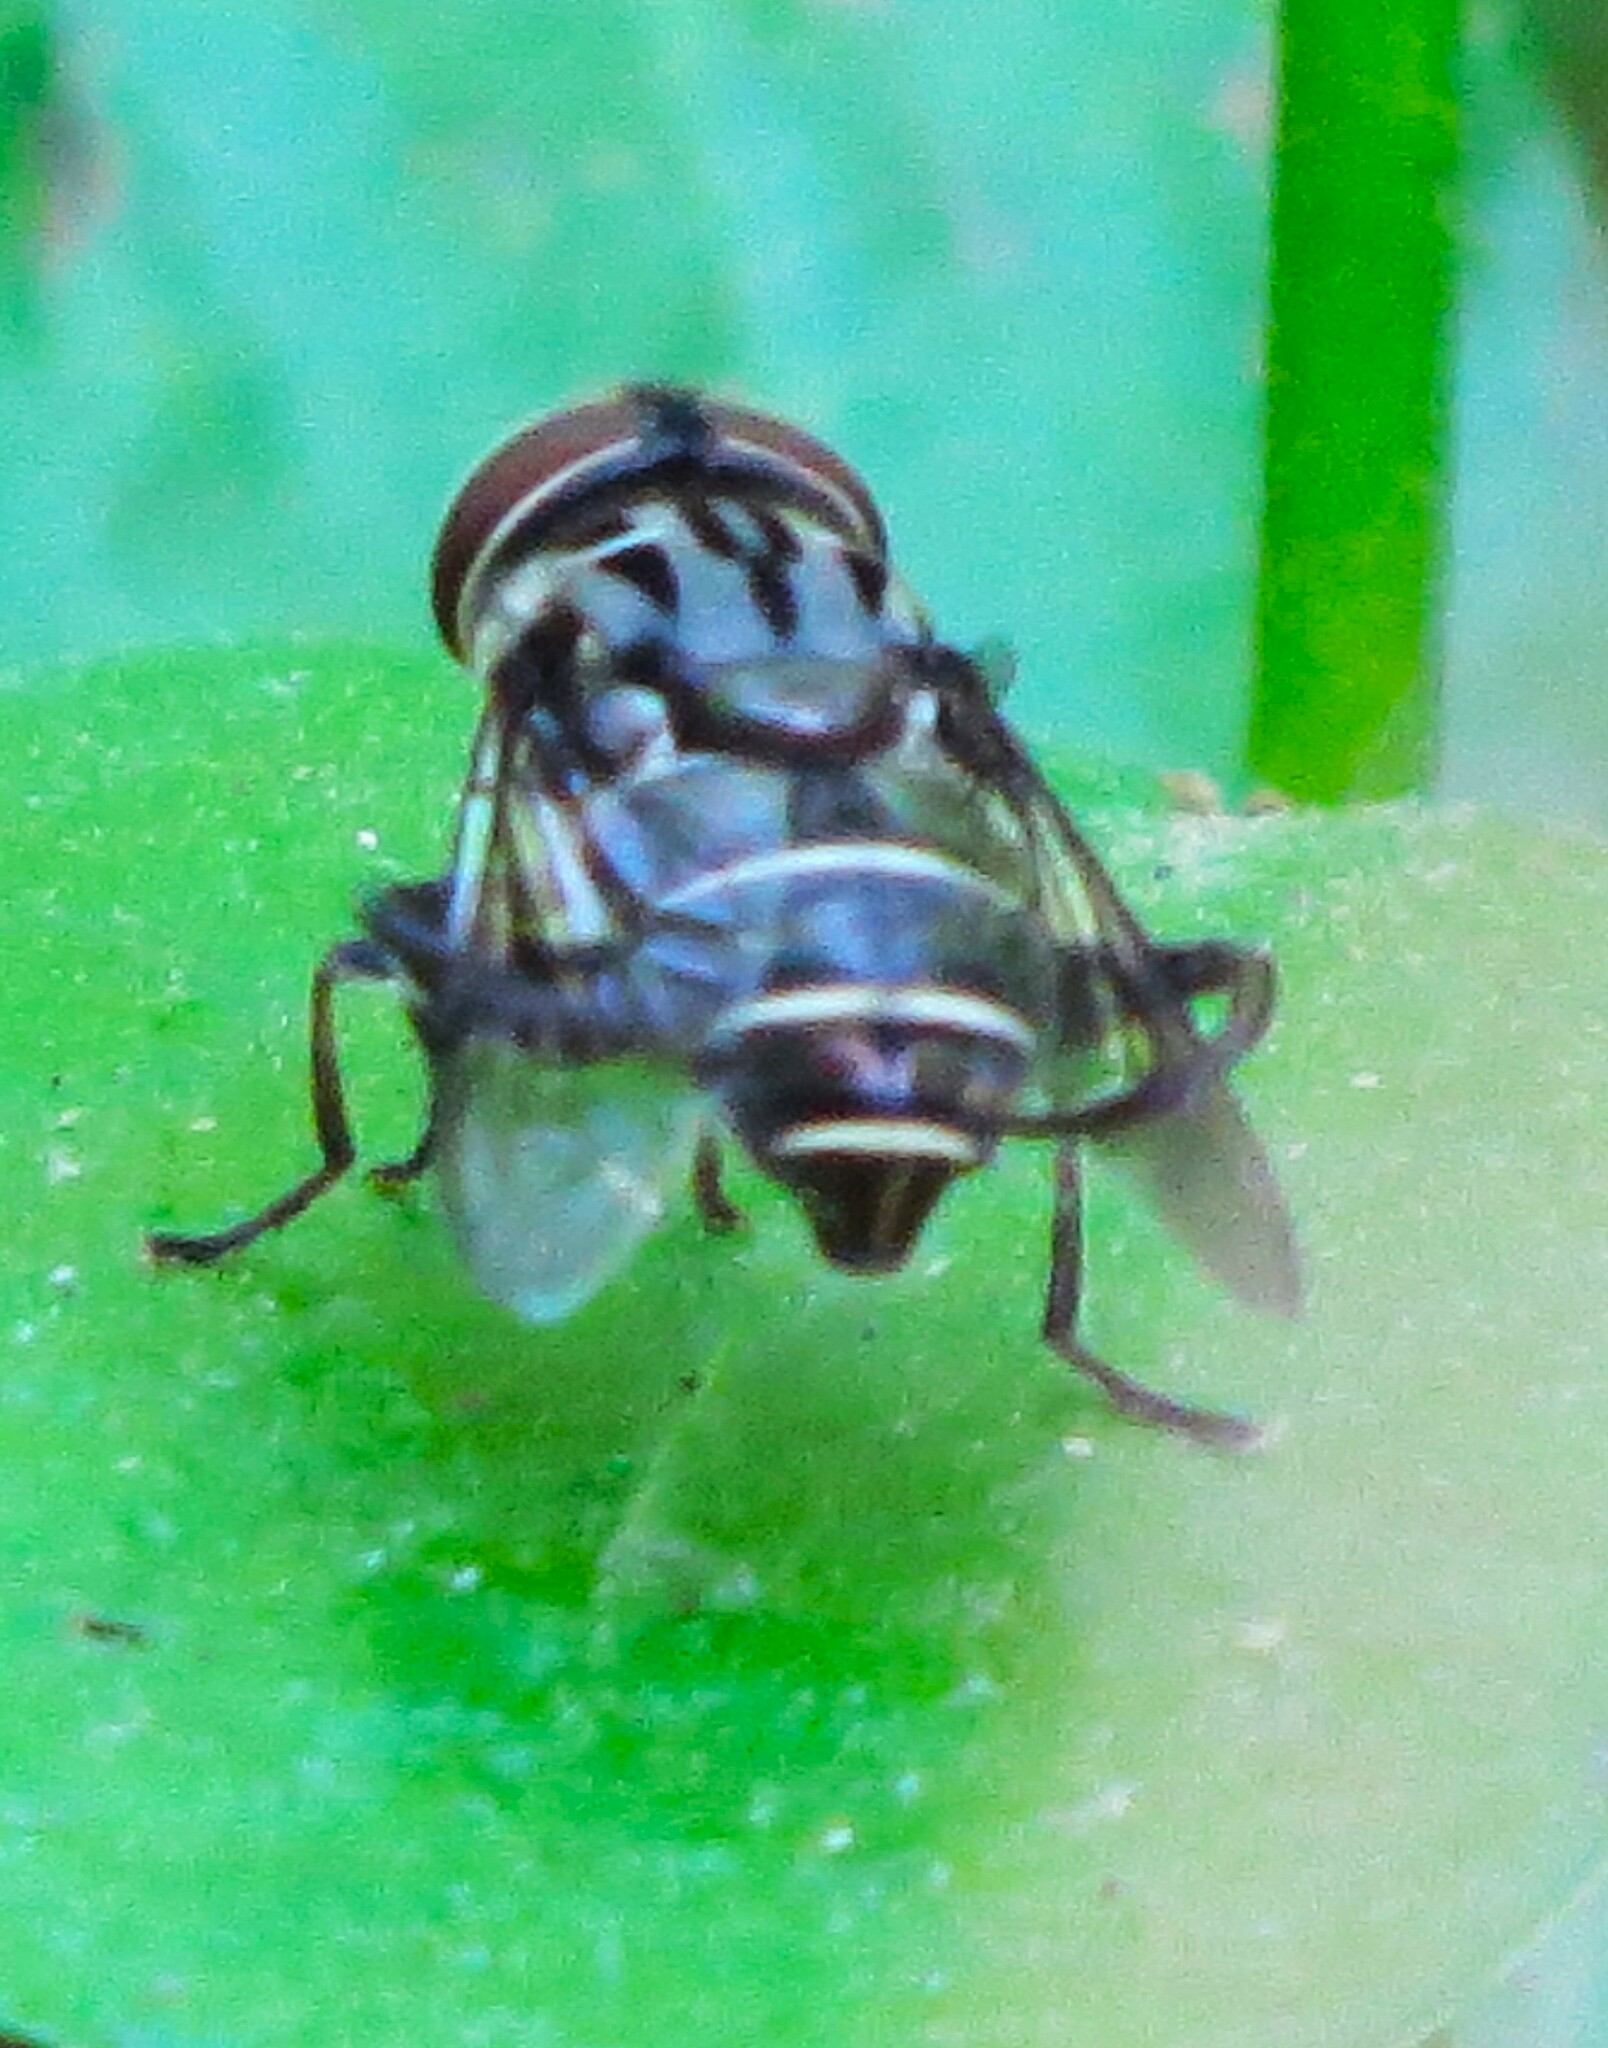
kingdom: Animalia
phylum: Arthropoda
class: Insecta
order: Diptera
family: Syrphidae
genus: Palpada
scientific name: Palpada furcata
